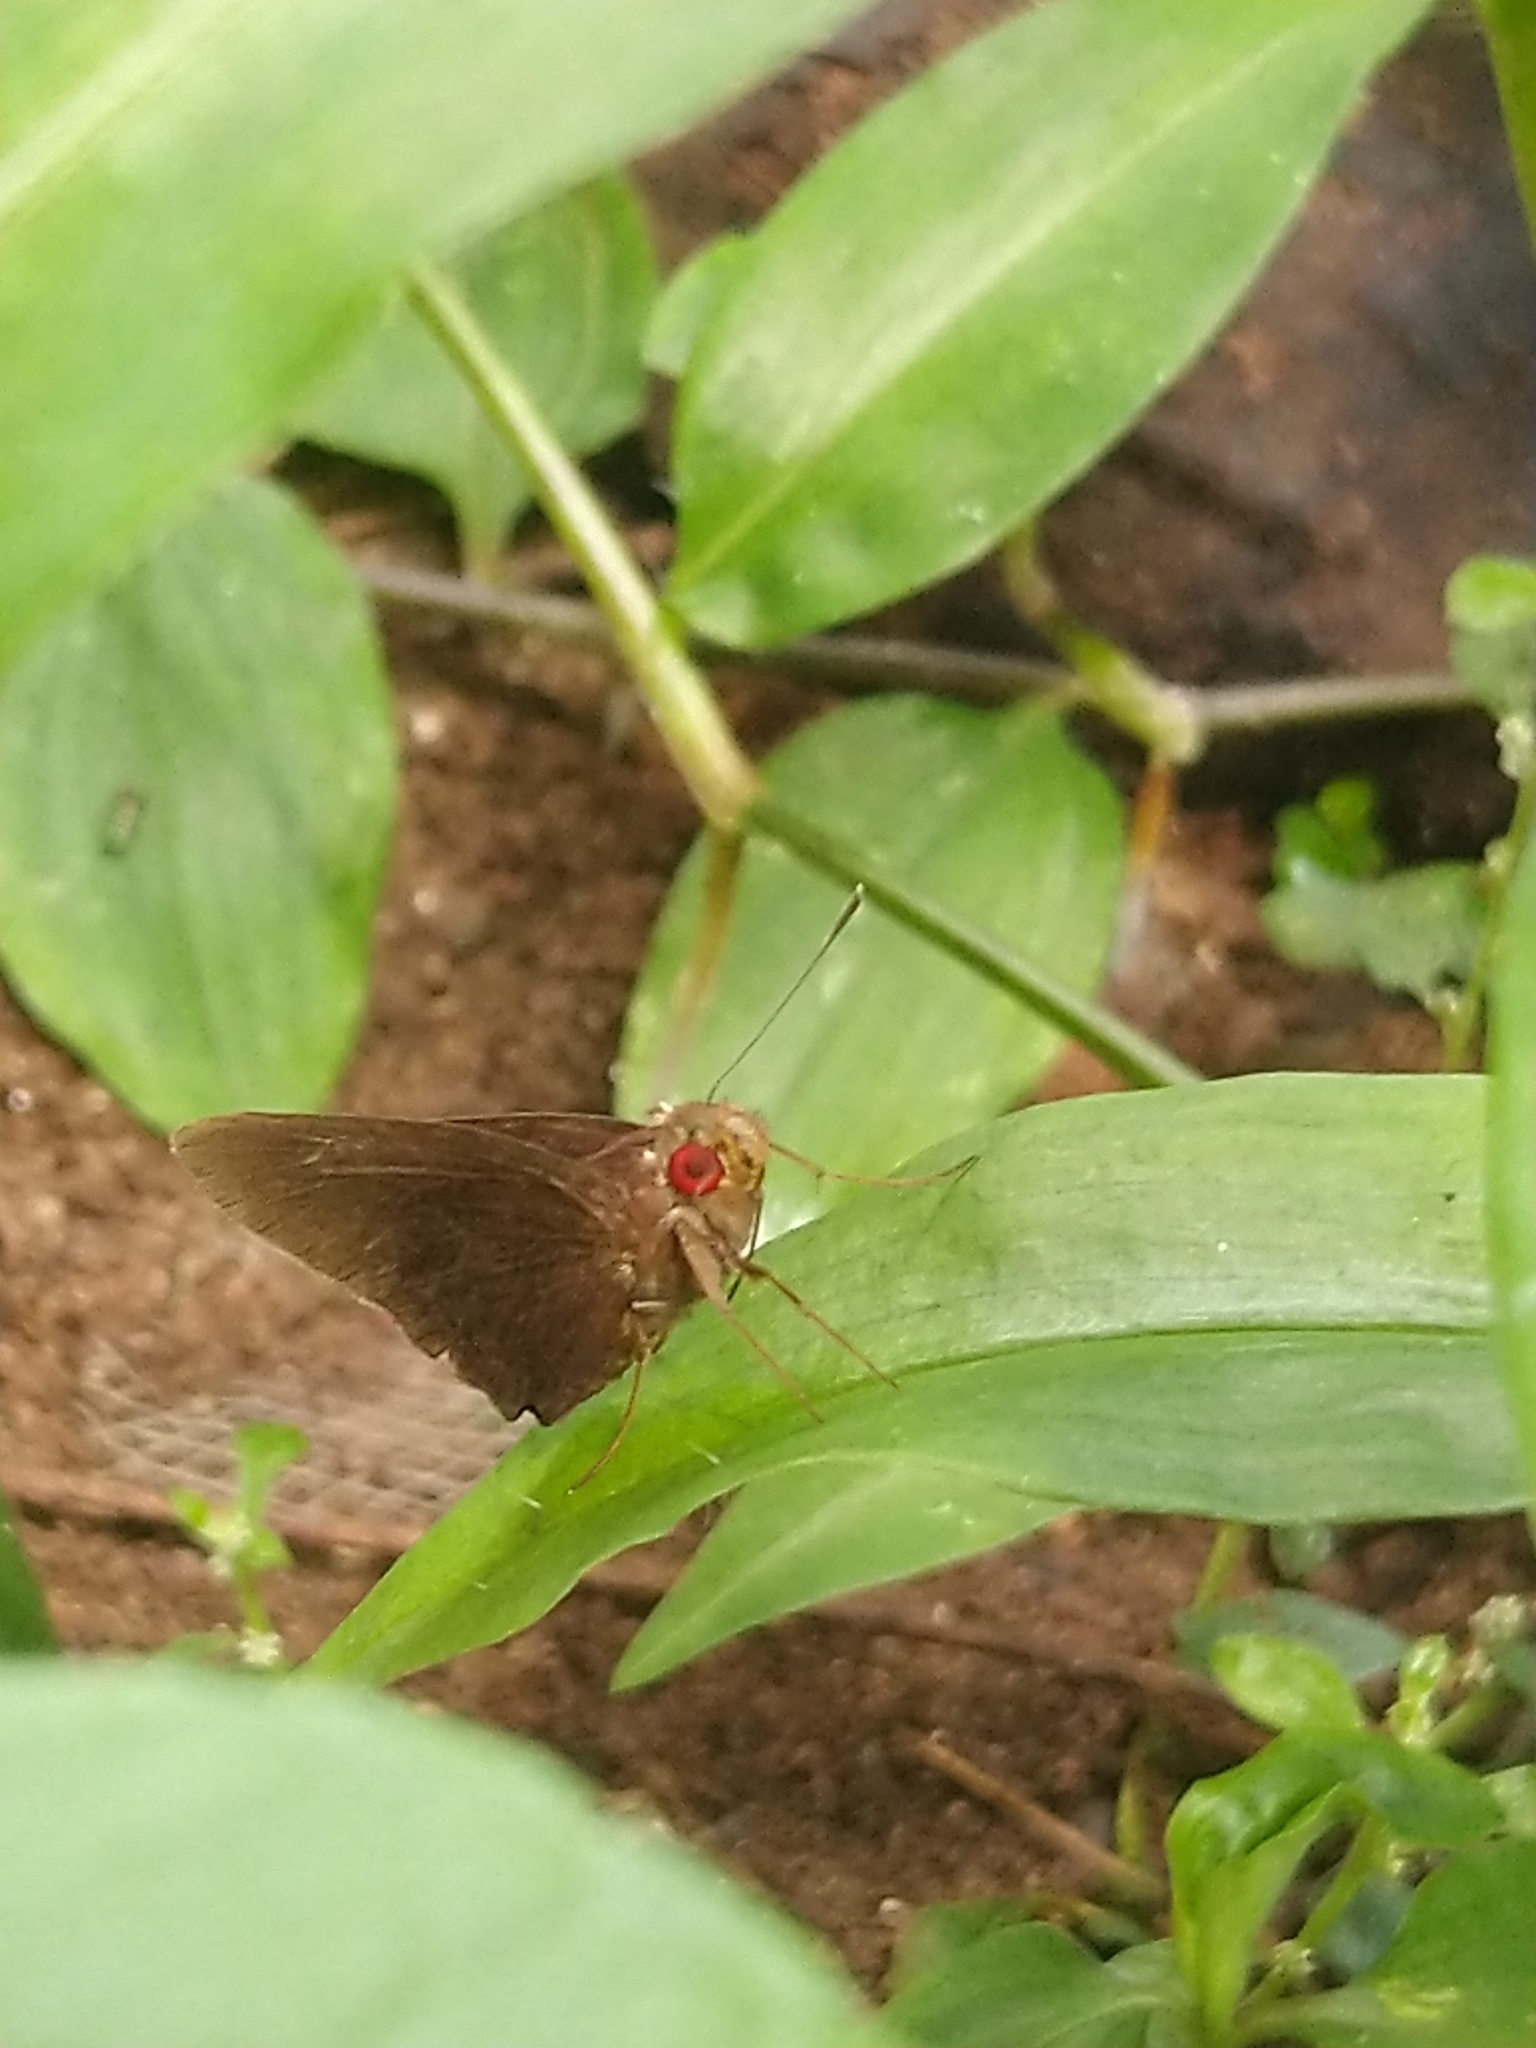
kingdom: Animalia
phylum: Arthropoda
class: Insecta
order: Lepidoptera
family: Hesperiidae
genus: Matapa
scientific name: Matapa aria
